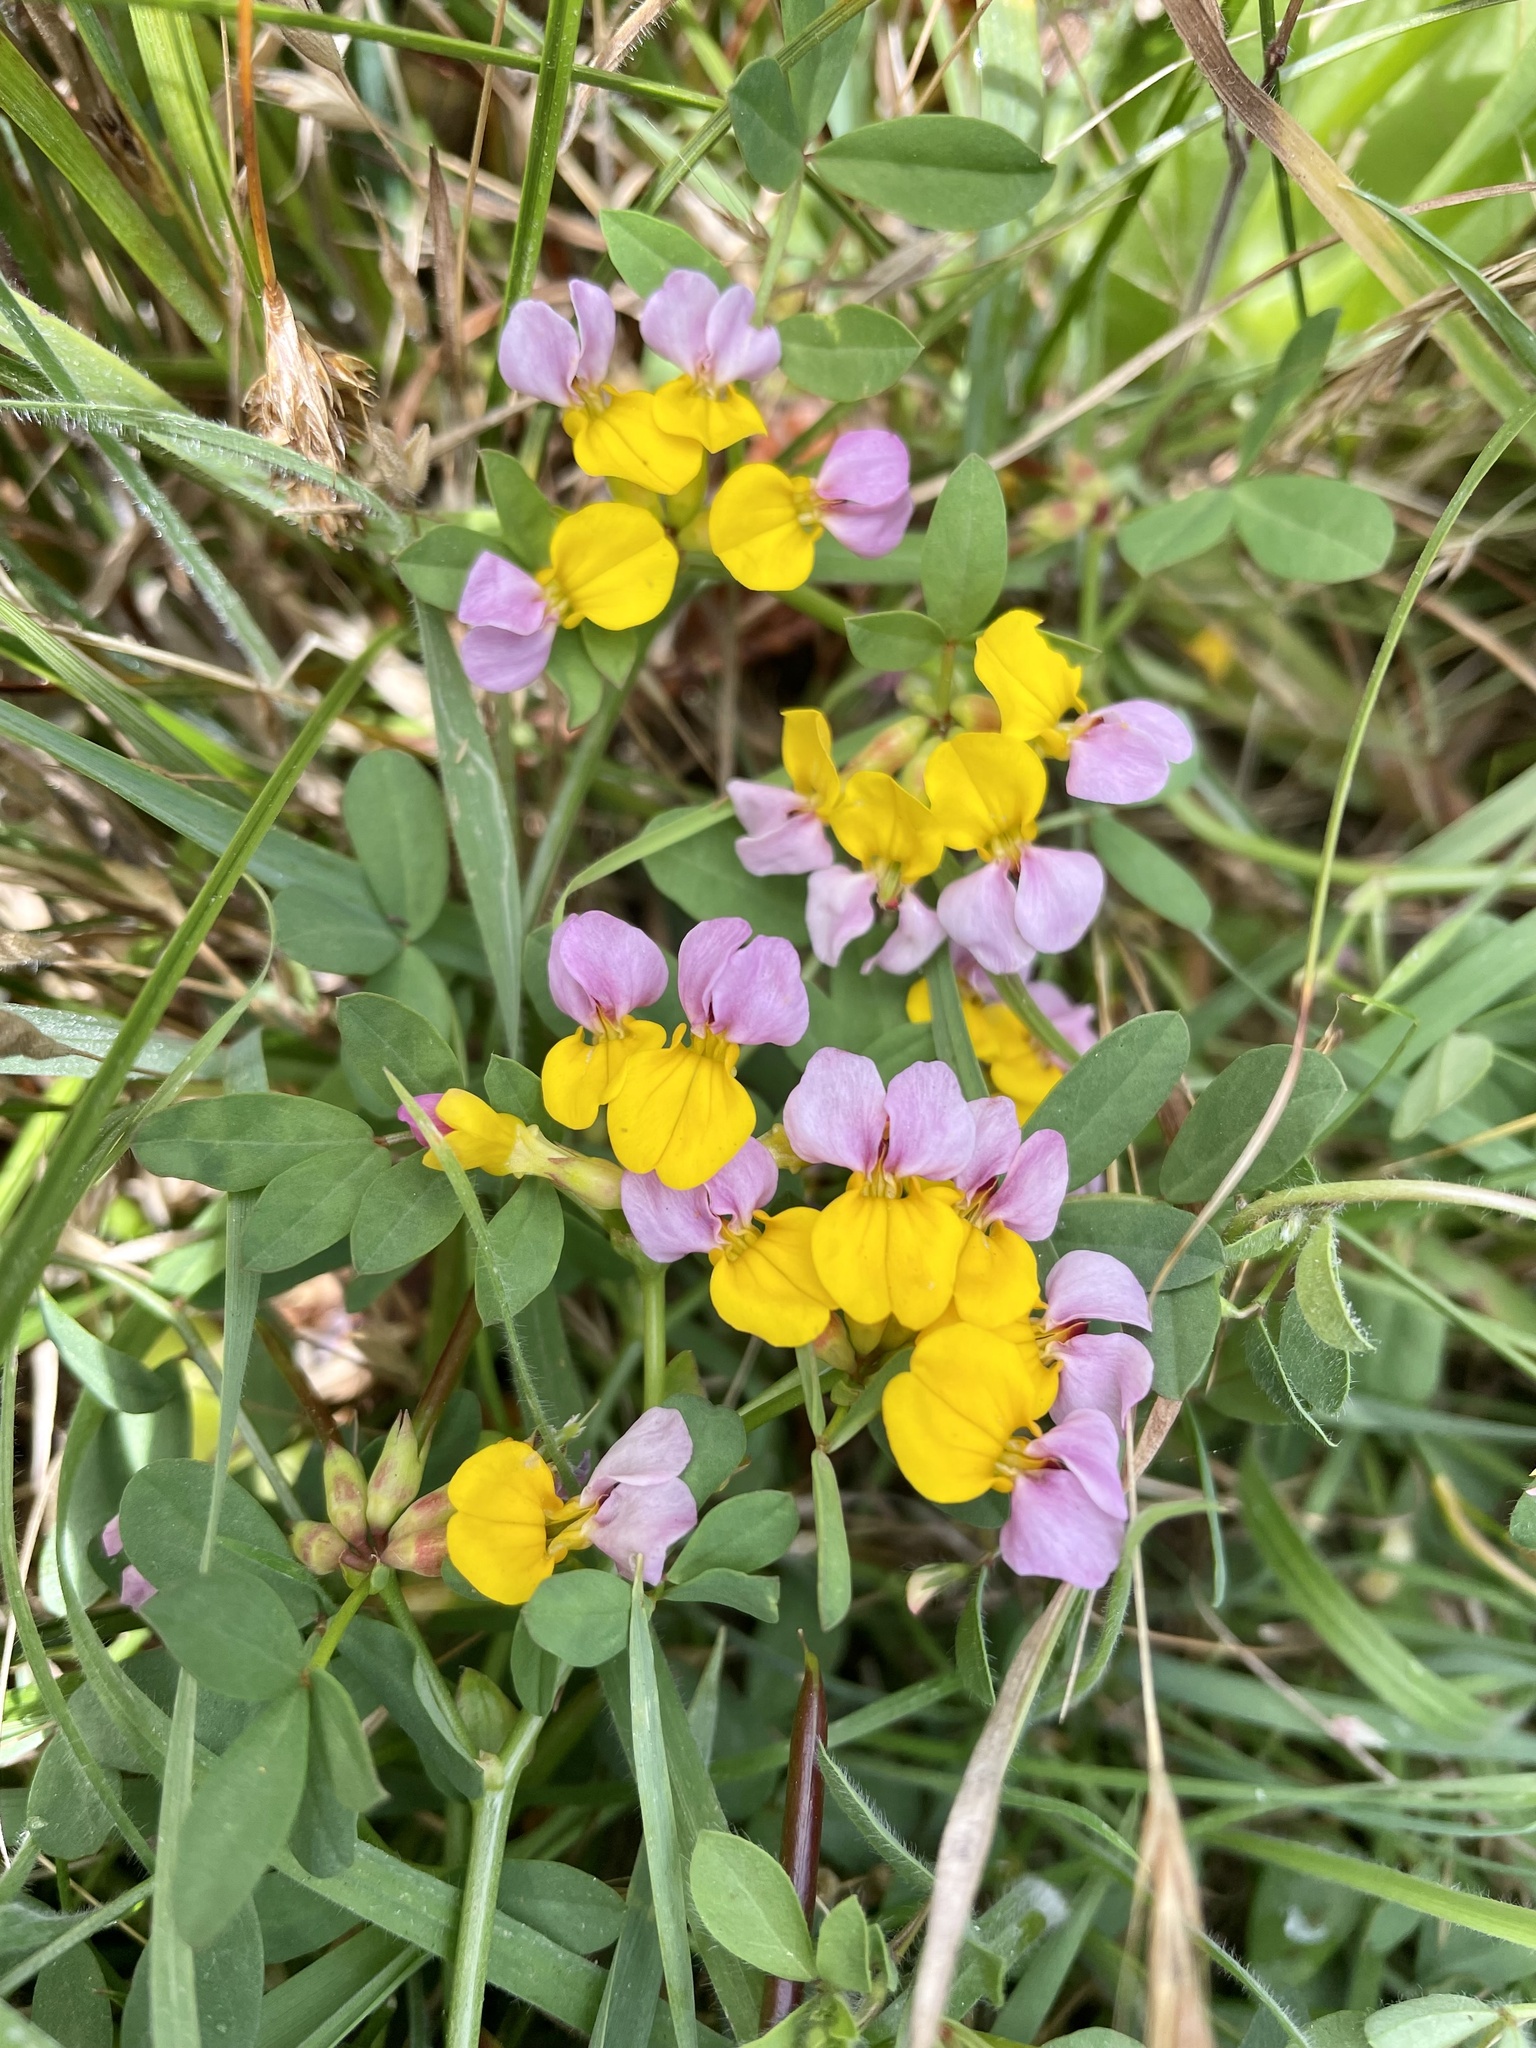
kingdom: Plantae
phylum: Tracheophyta
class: Magnoliopsida
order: Fabales
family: Fabaceae
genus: Hosackia
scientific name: Hosackia gracilis
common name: Seaside bird's-foot lotus
